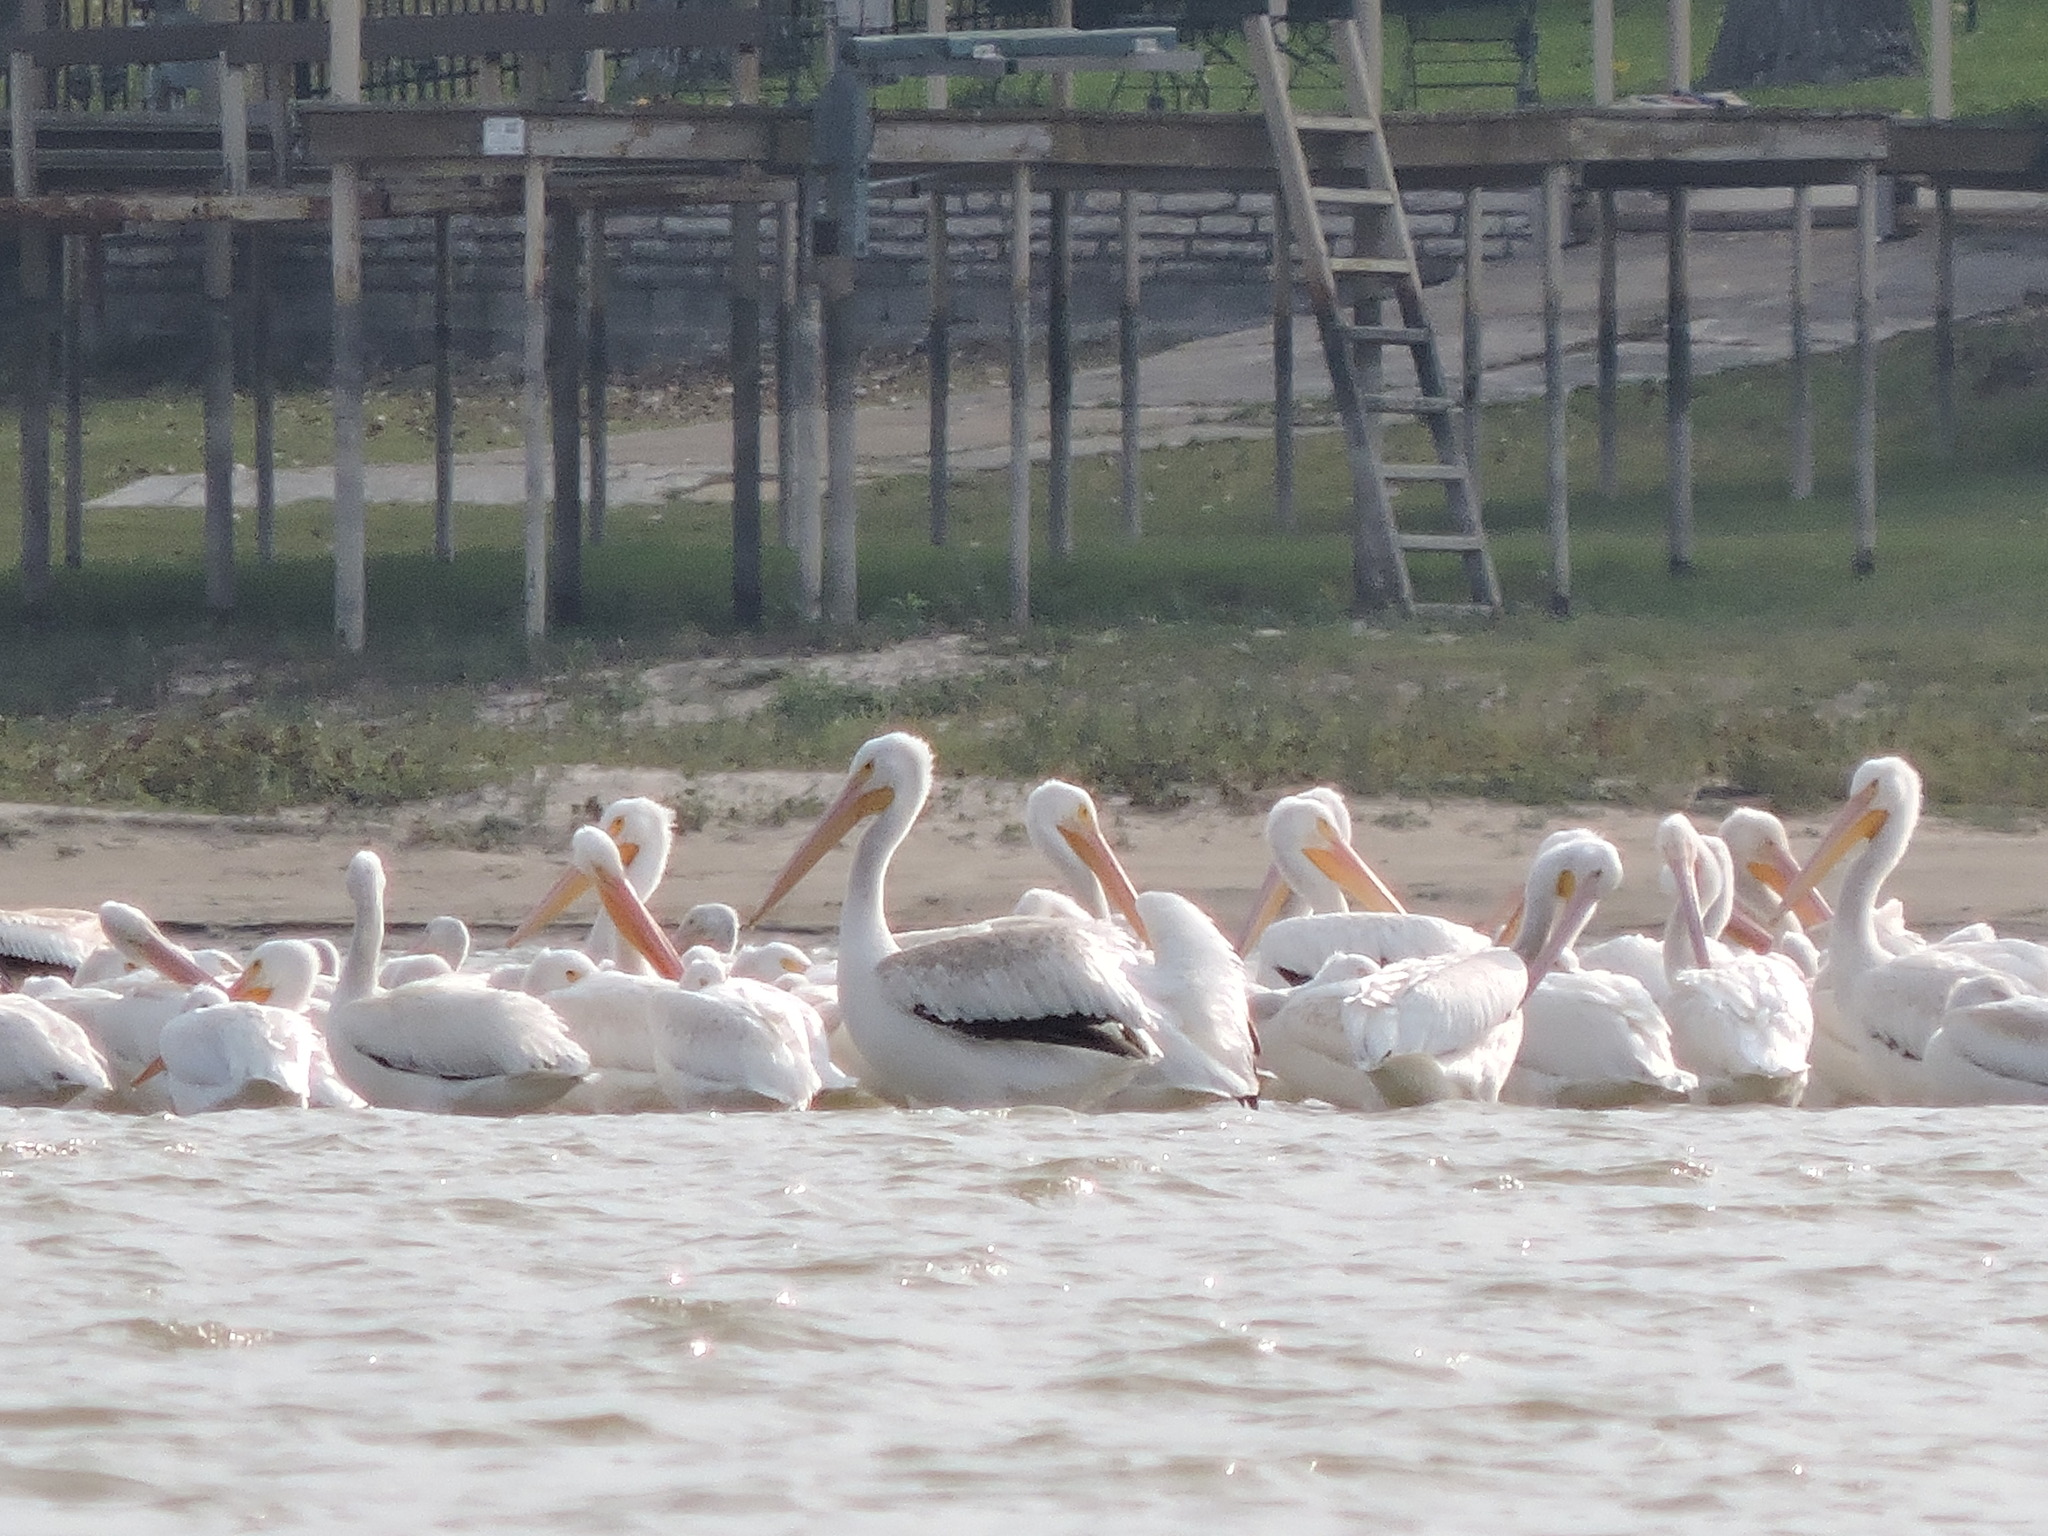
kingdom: Animalia
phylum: Chordata
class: Aves
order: Pelecaniformes
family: Pelecanidae
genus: Pelecanus
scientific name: Pelecanus erythrorhynchos
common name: American white pelican
